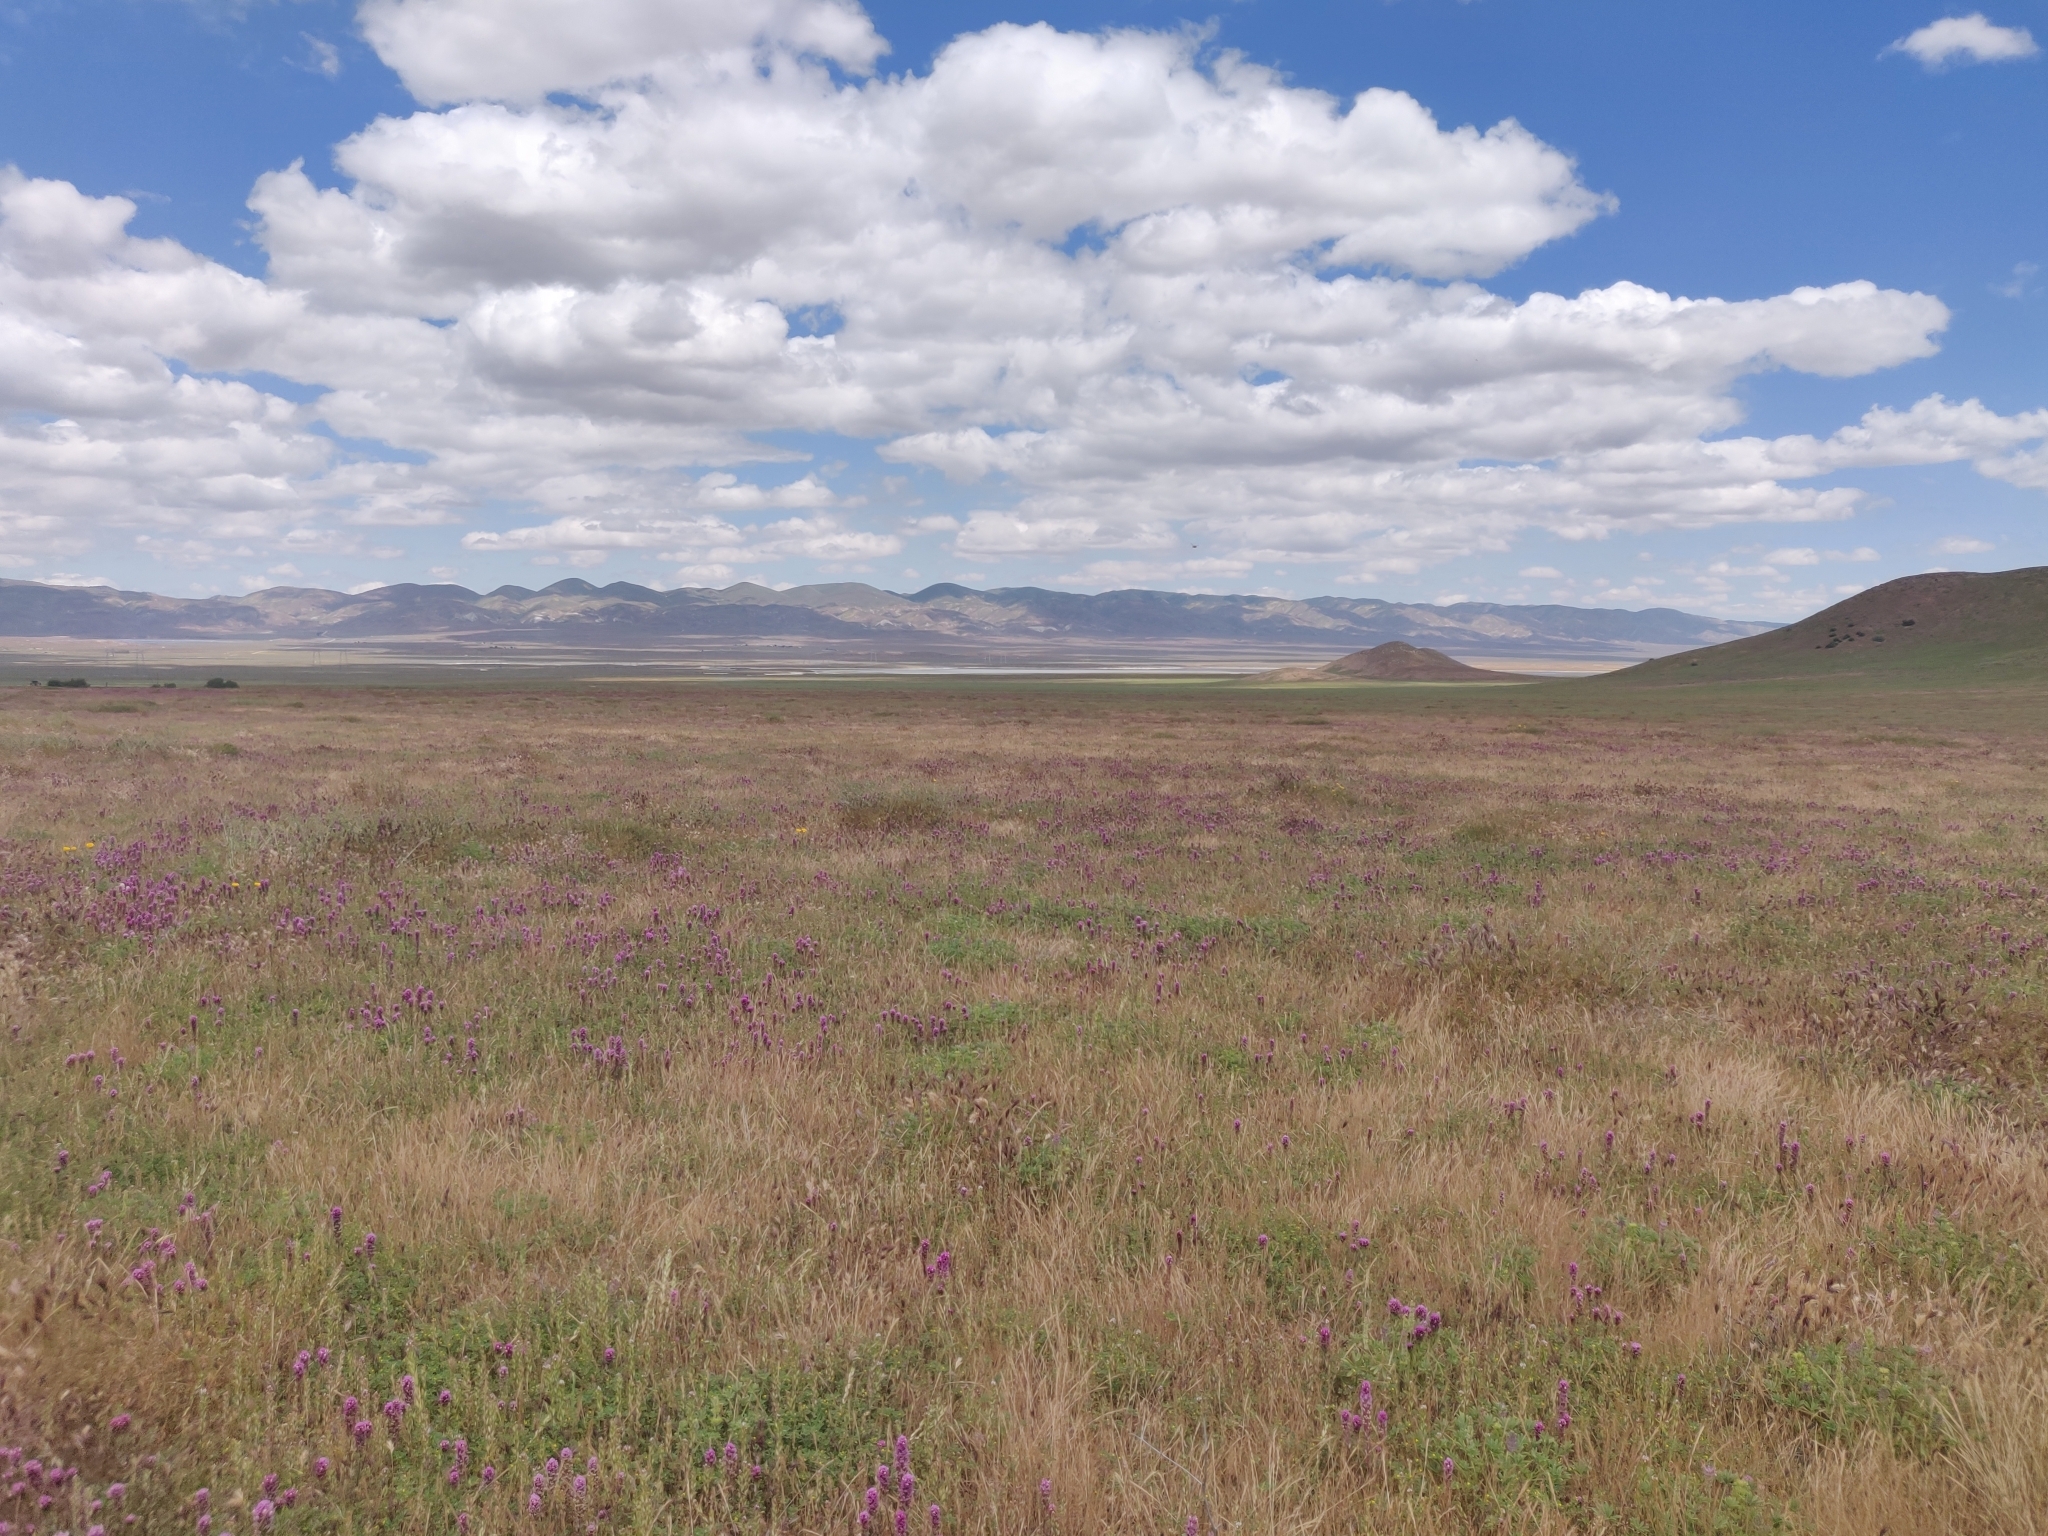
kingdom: Plantae
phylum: Tracheophyta
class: Magnoliopsida
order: Lamiales
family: Orobanchaceae
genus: Castilleja
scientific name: Castilleja exserta
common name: Purple owl-clover
